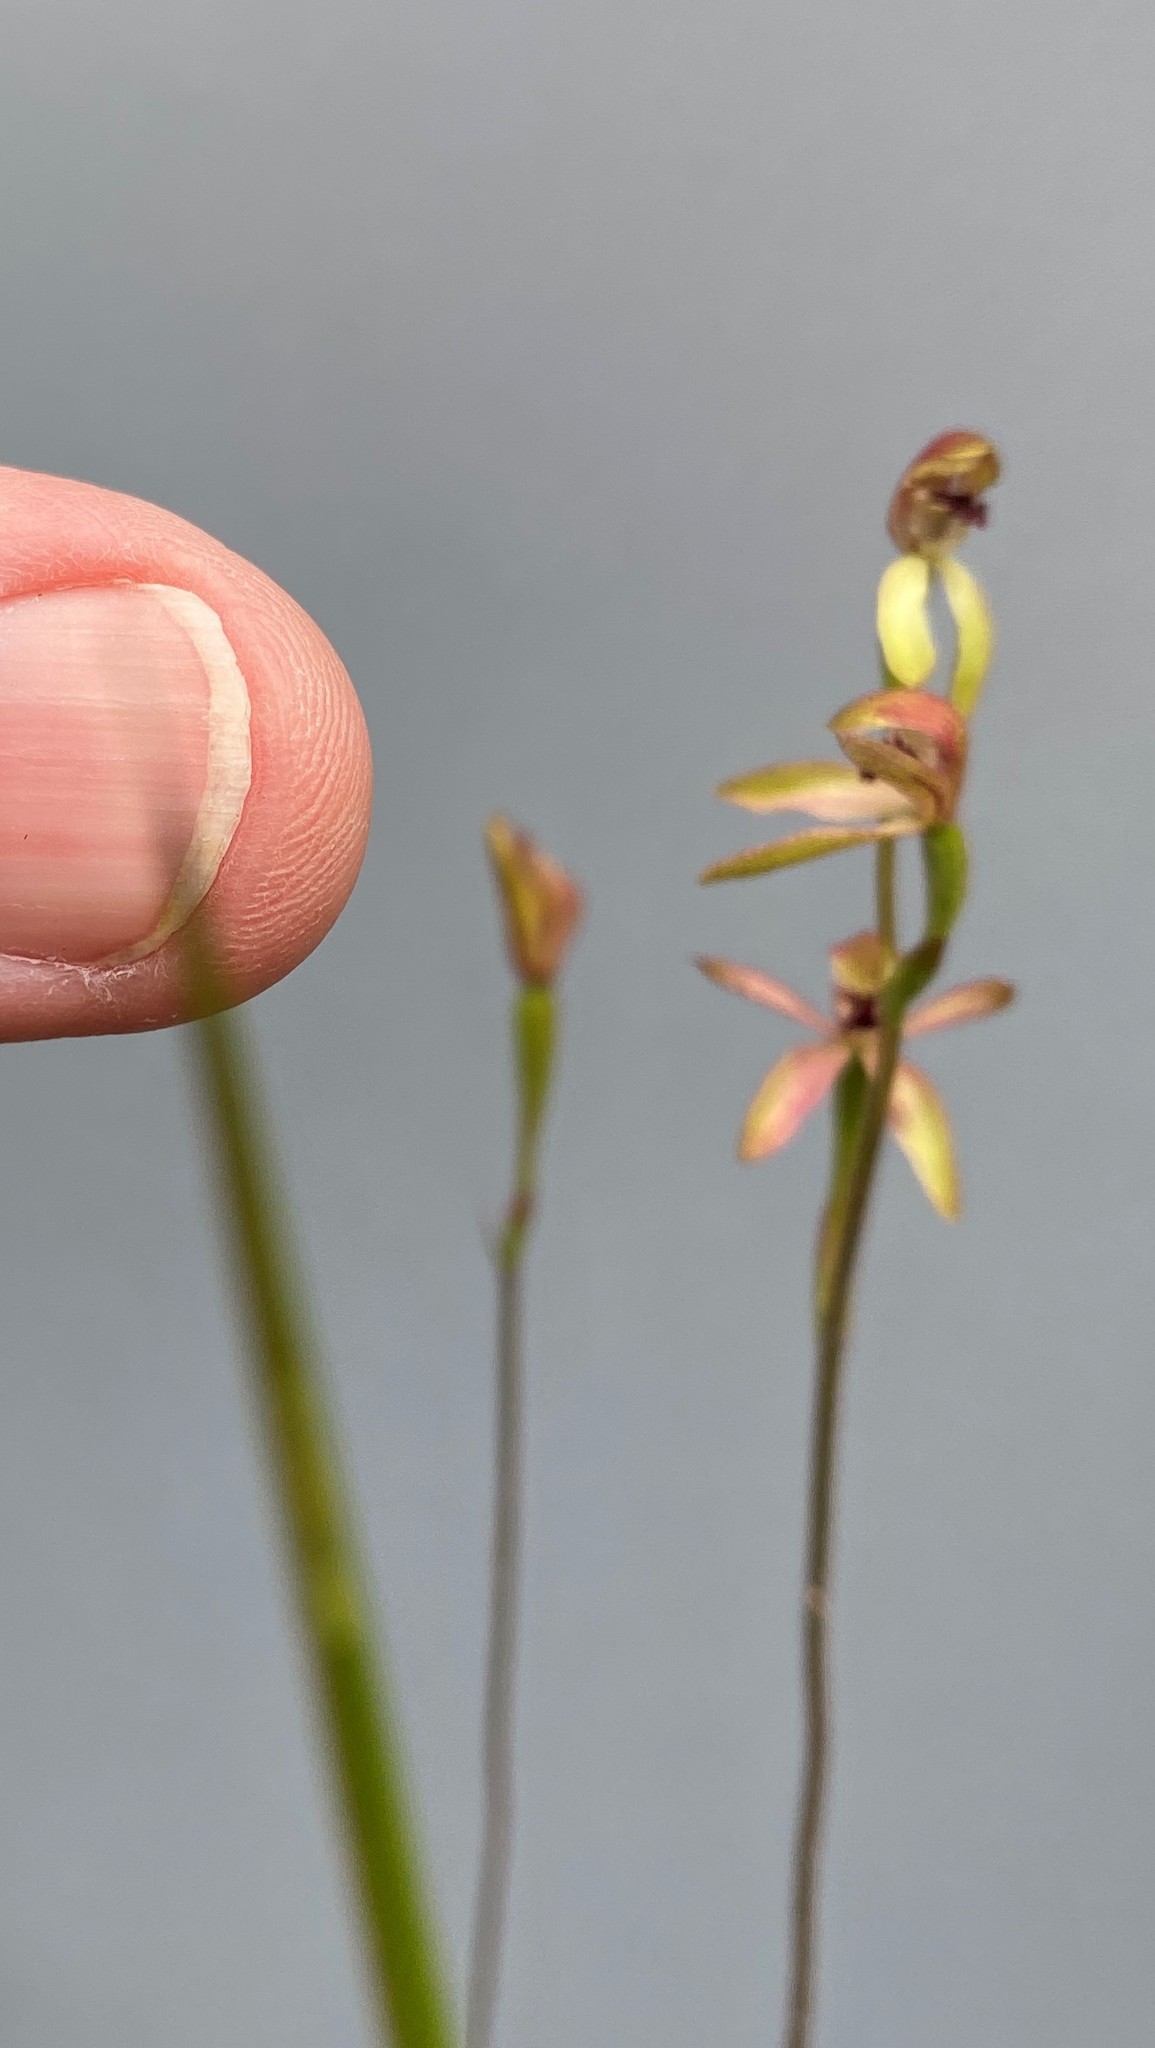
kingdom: Plantae
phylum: Tracheophyta
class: Liliopsida
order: Asparagales
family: Orchidaceae
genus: Caladenia
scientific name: Caladenia transitoria
